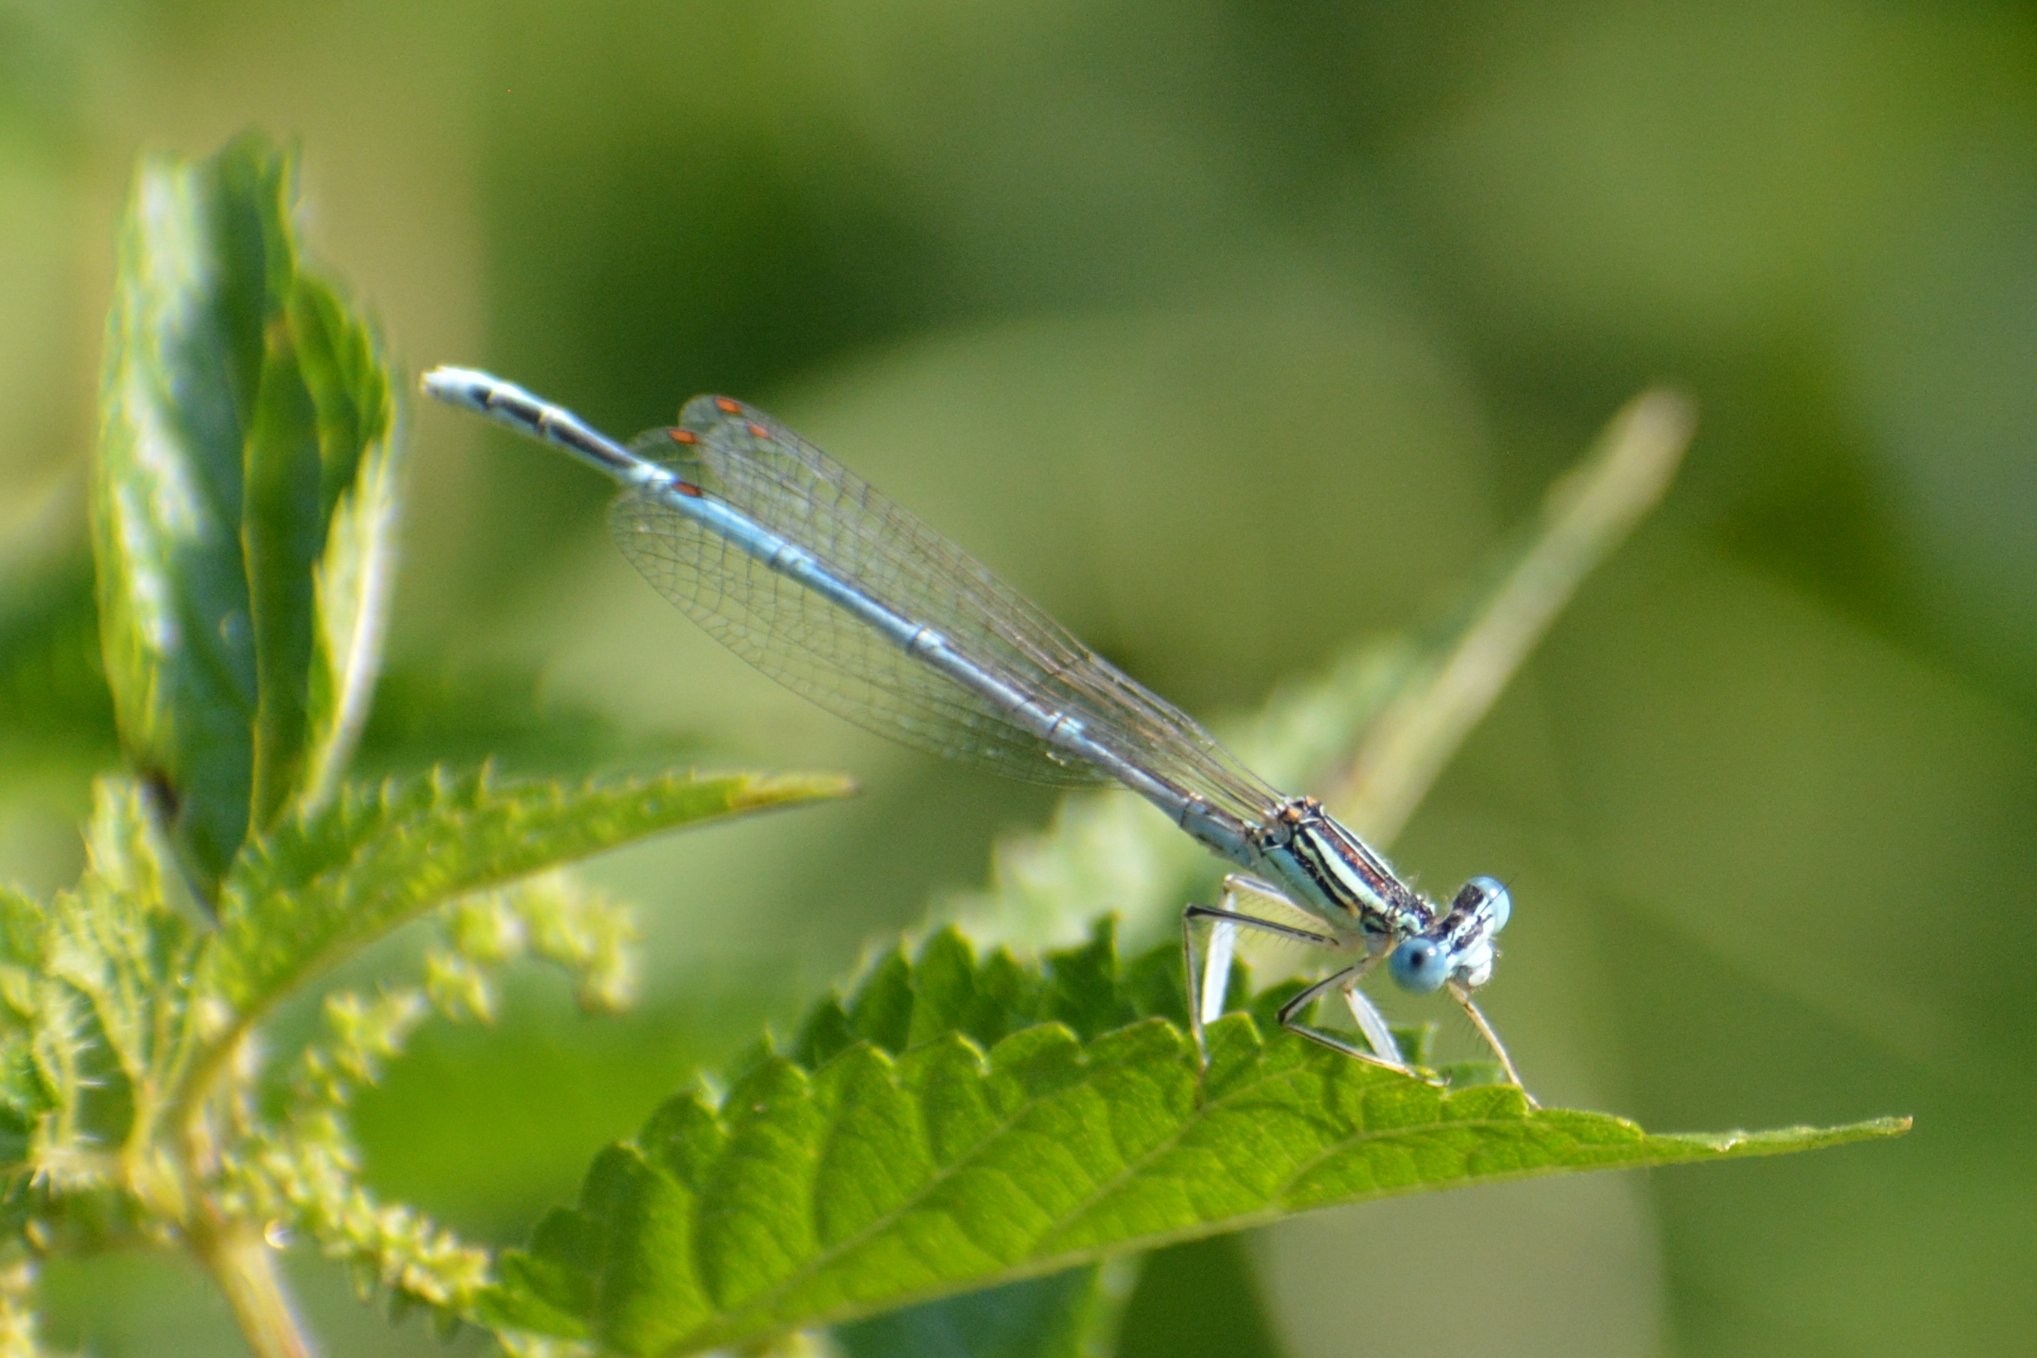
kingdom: Animalia
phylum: Arthropoda
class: Insecta
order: Odonata
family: Platycnemididae
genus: Platycnemis
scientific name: Platycnemis pennipes
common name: White-legged damselfly
